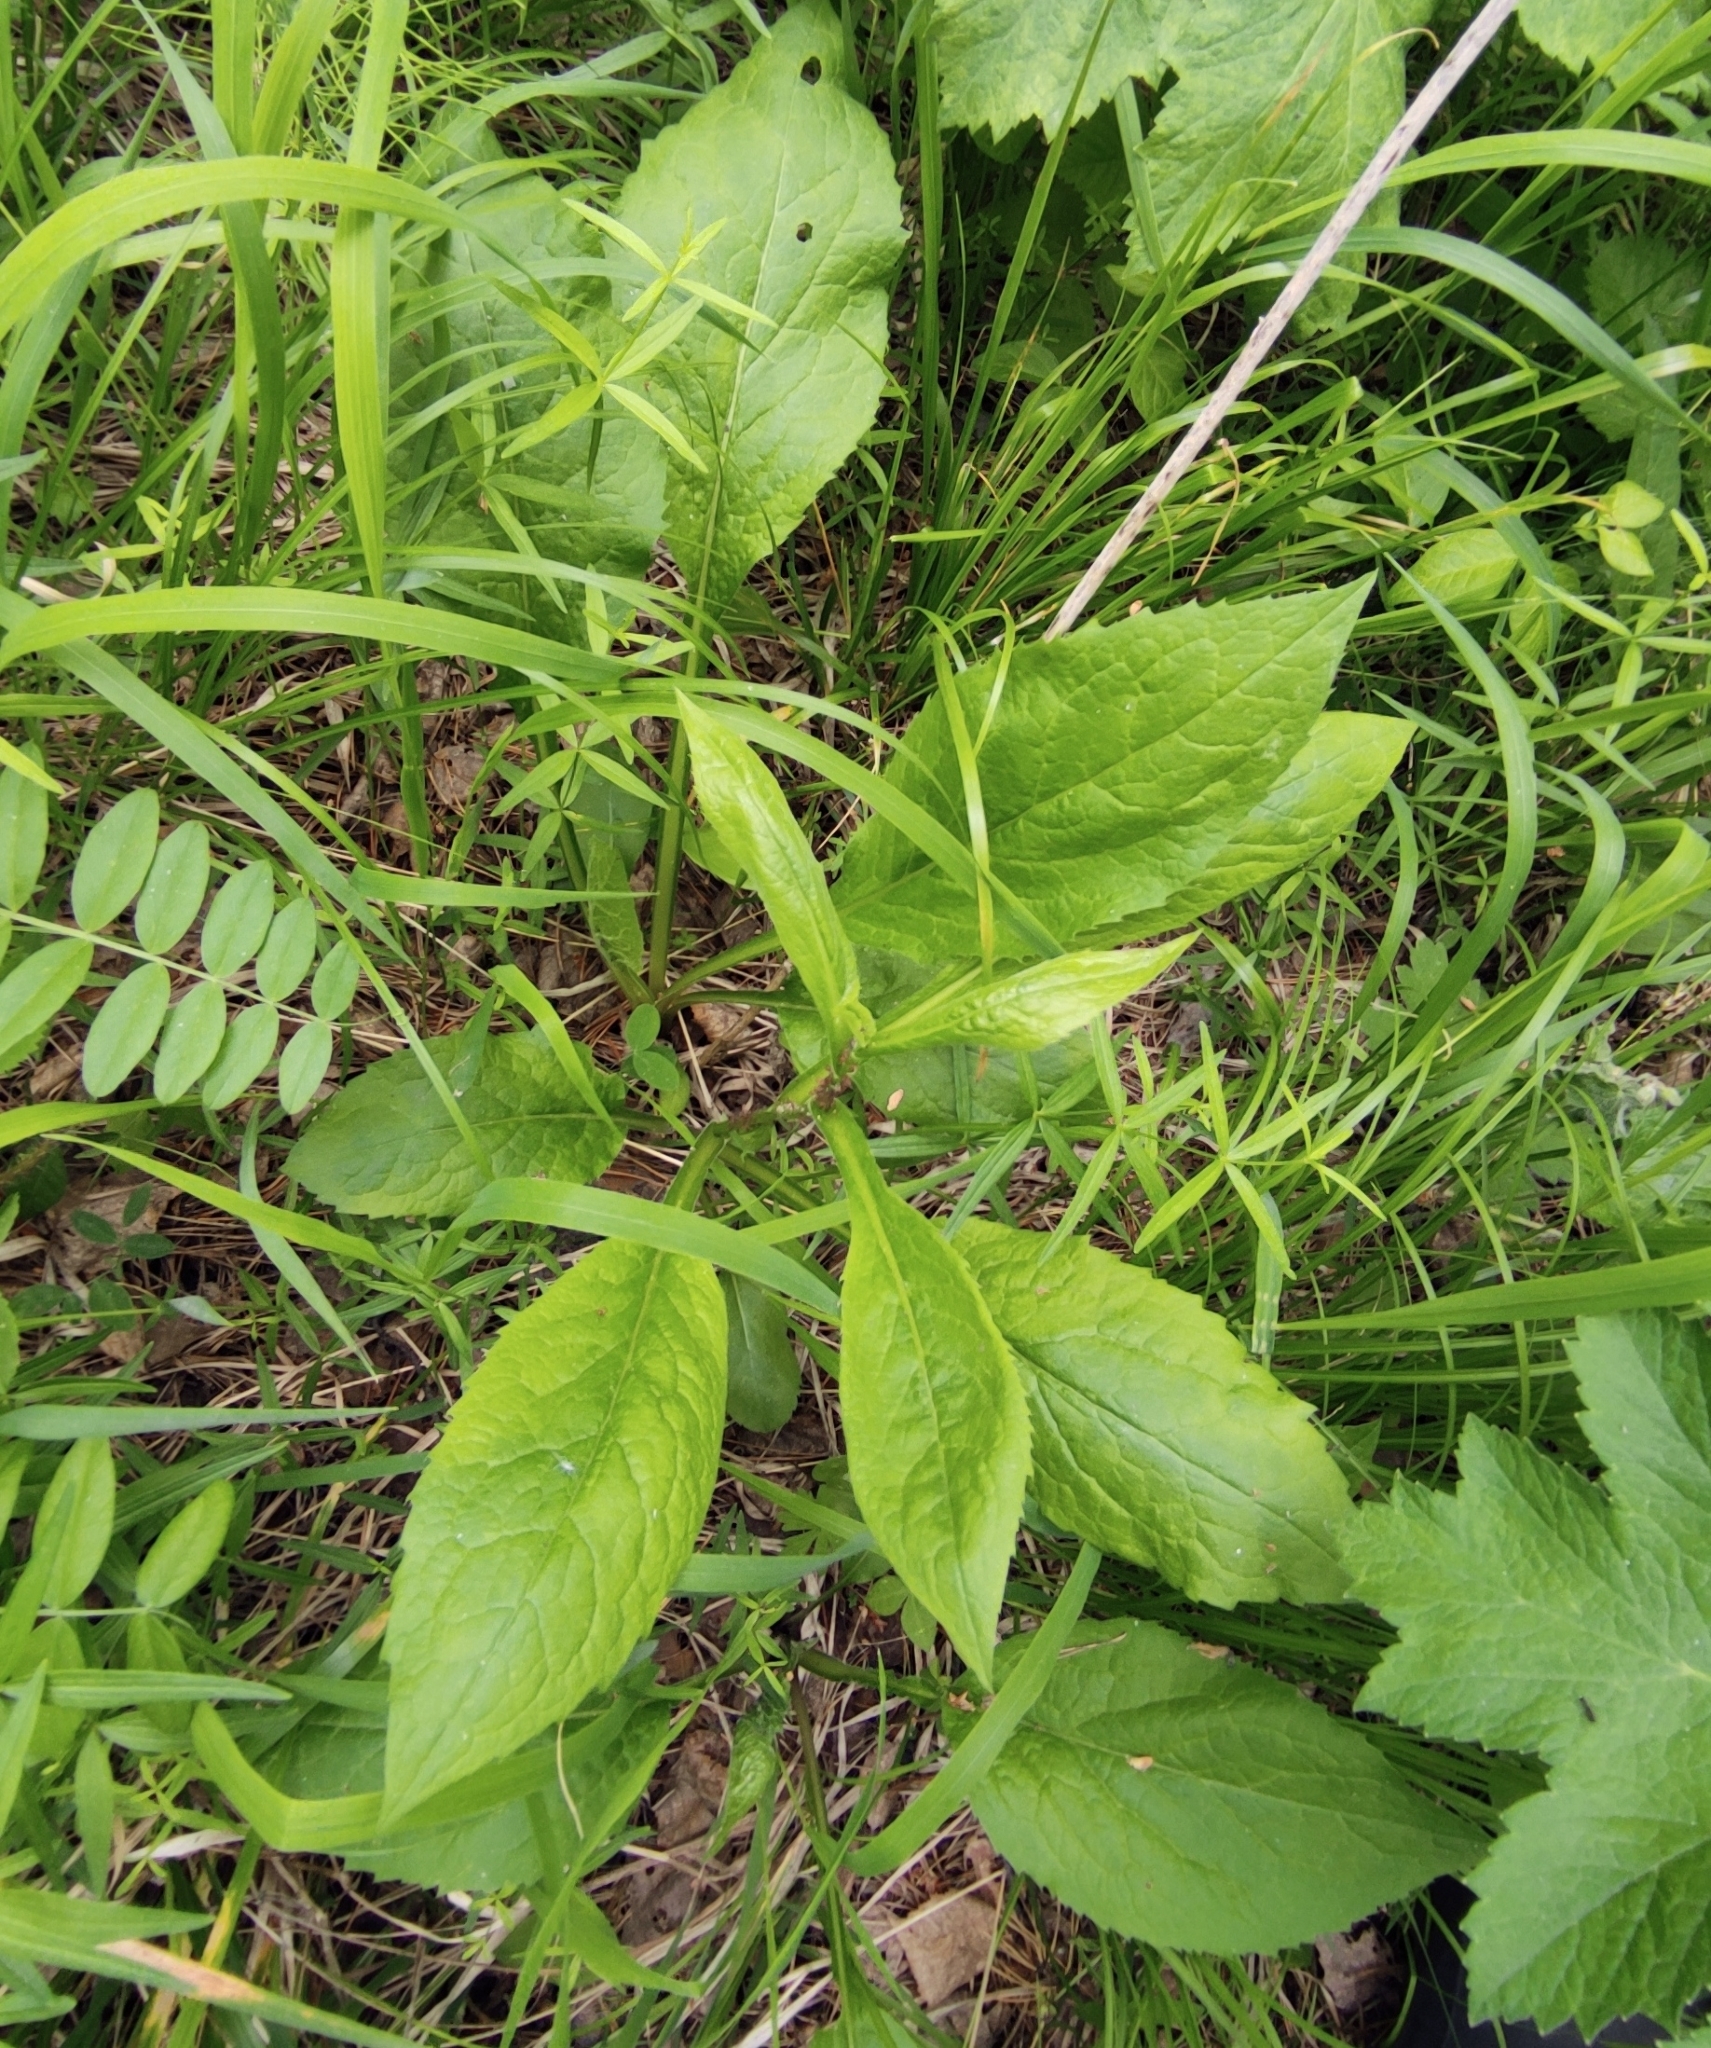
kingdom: Plantae
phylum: Tracheophyta
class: Magnoliopsida
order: Asterales
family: Asteraceae
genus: Solidago
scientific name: Solidago dahurica
